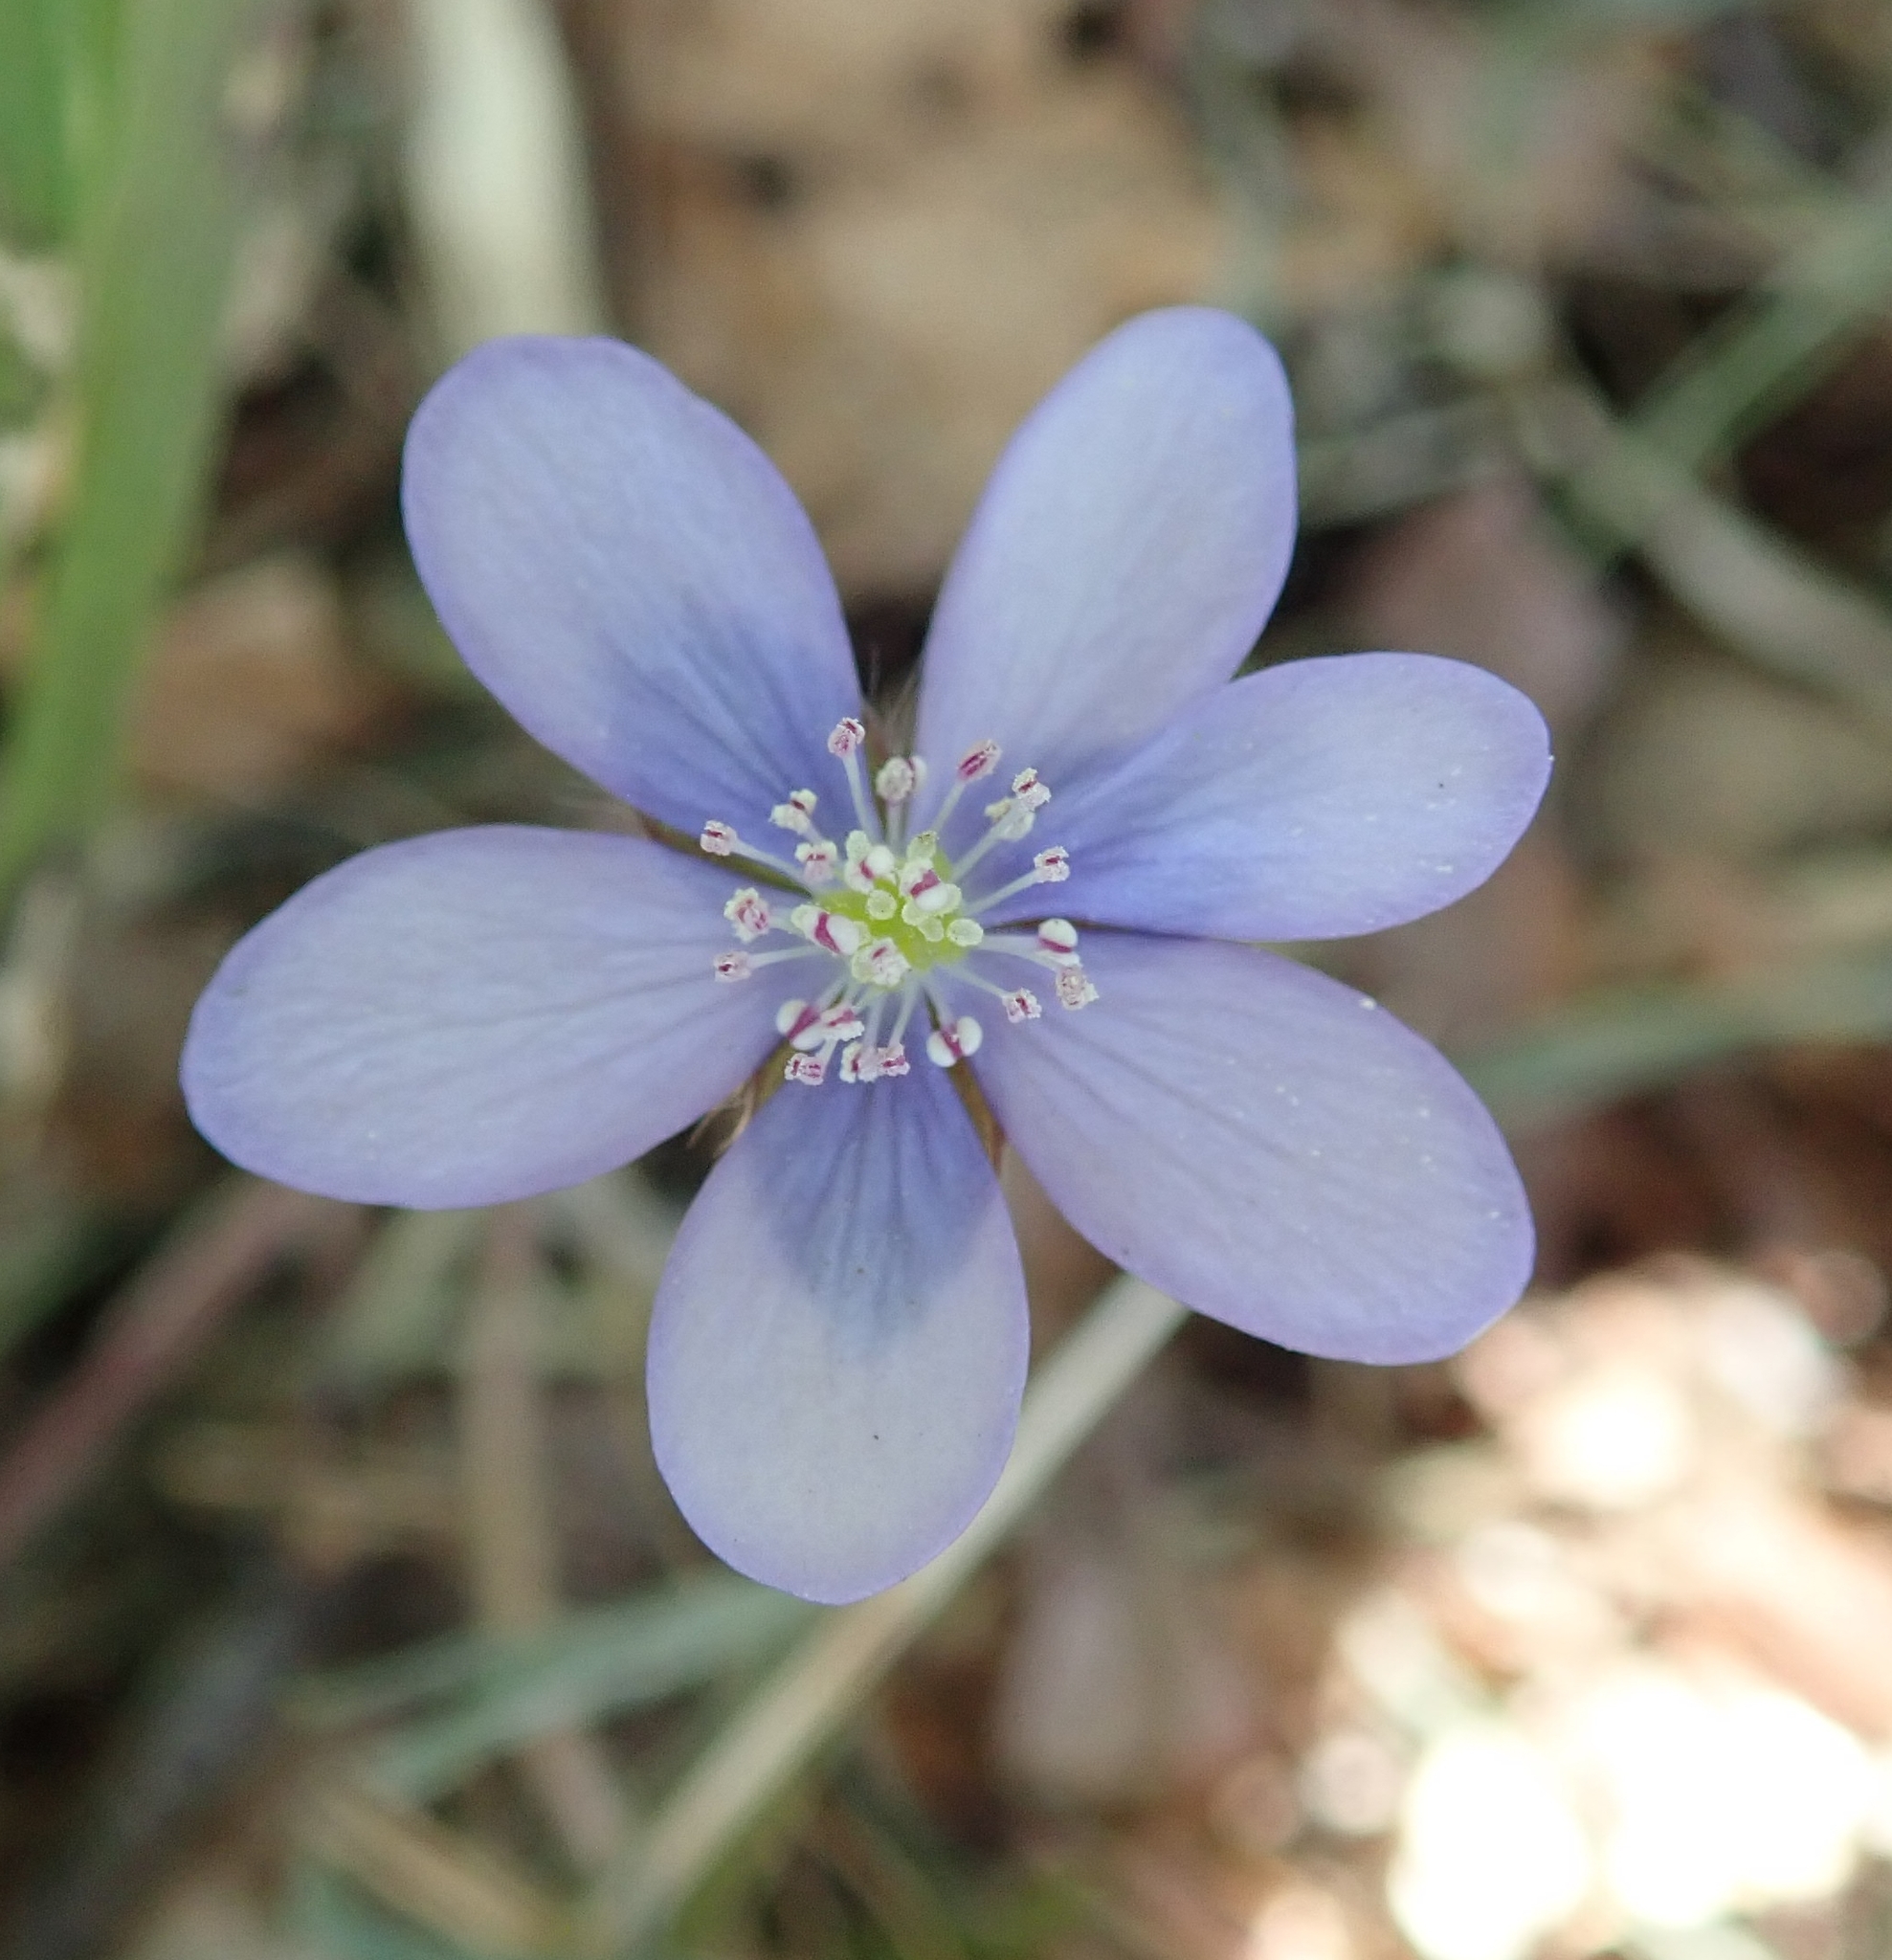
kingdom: Plantae
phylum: Tracheophyta
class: Magnoliopsida
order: Ranunculales
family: Ranunculaceae
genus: Hepatica
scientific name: Hepatica nobilis
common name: Liverleaf
